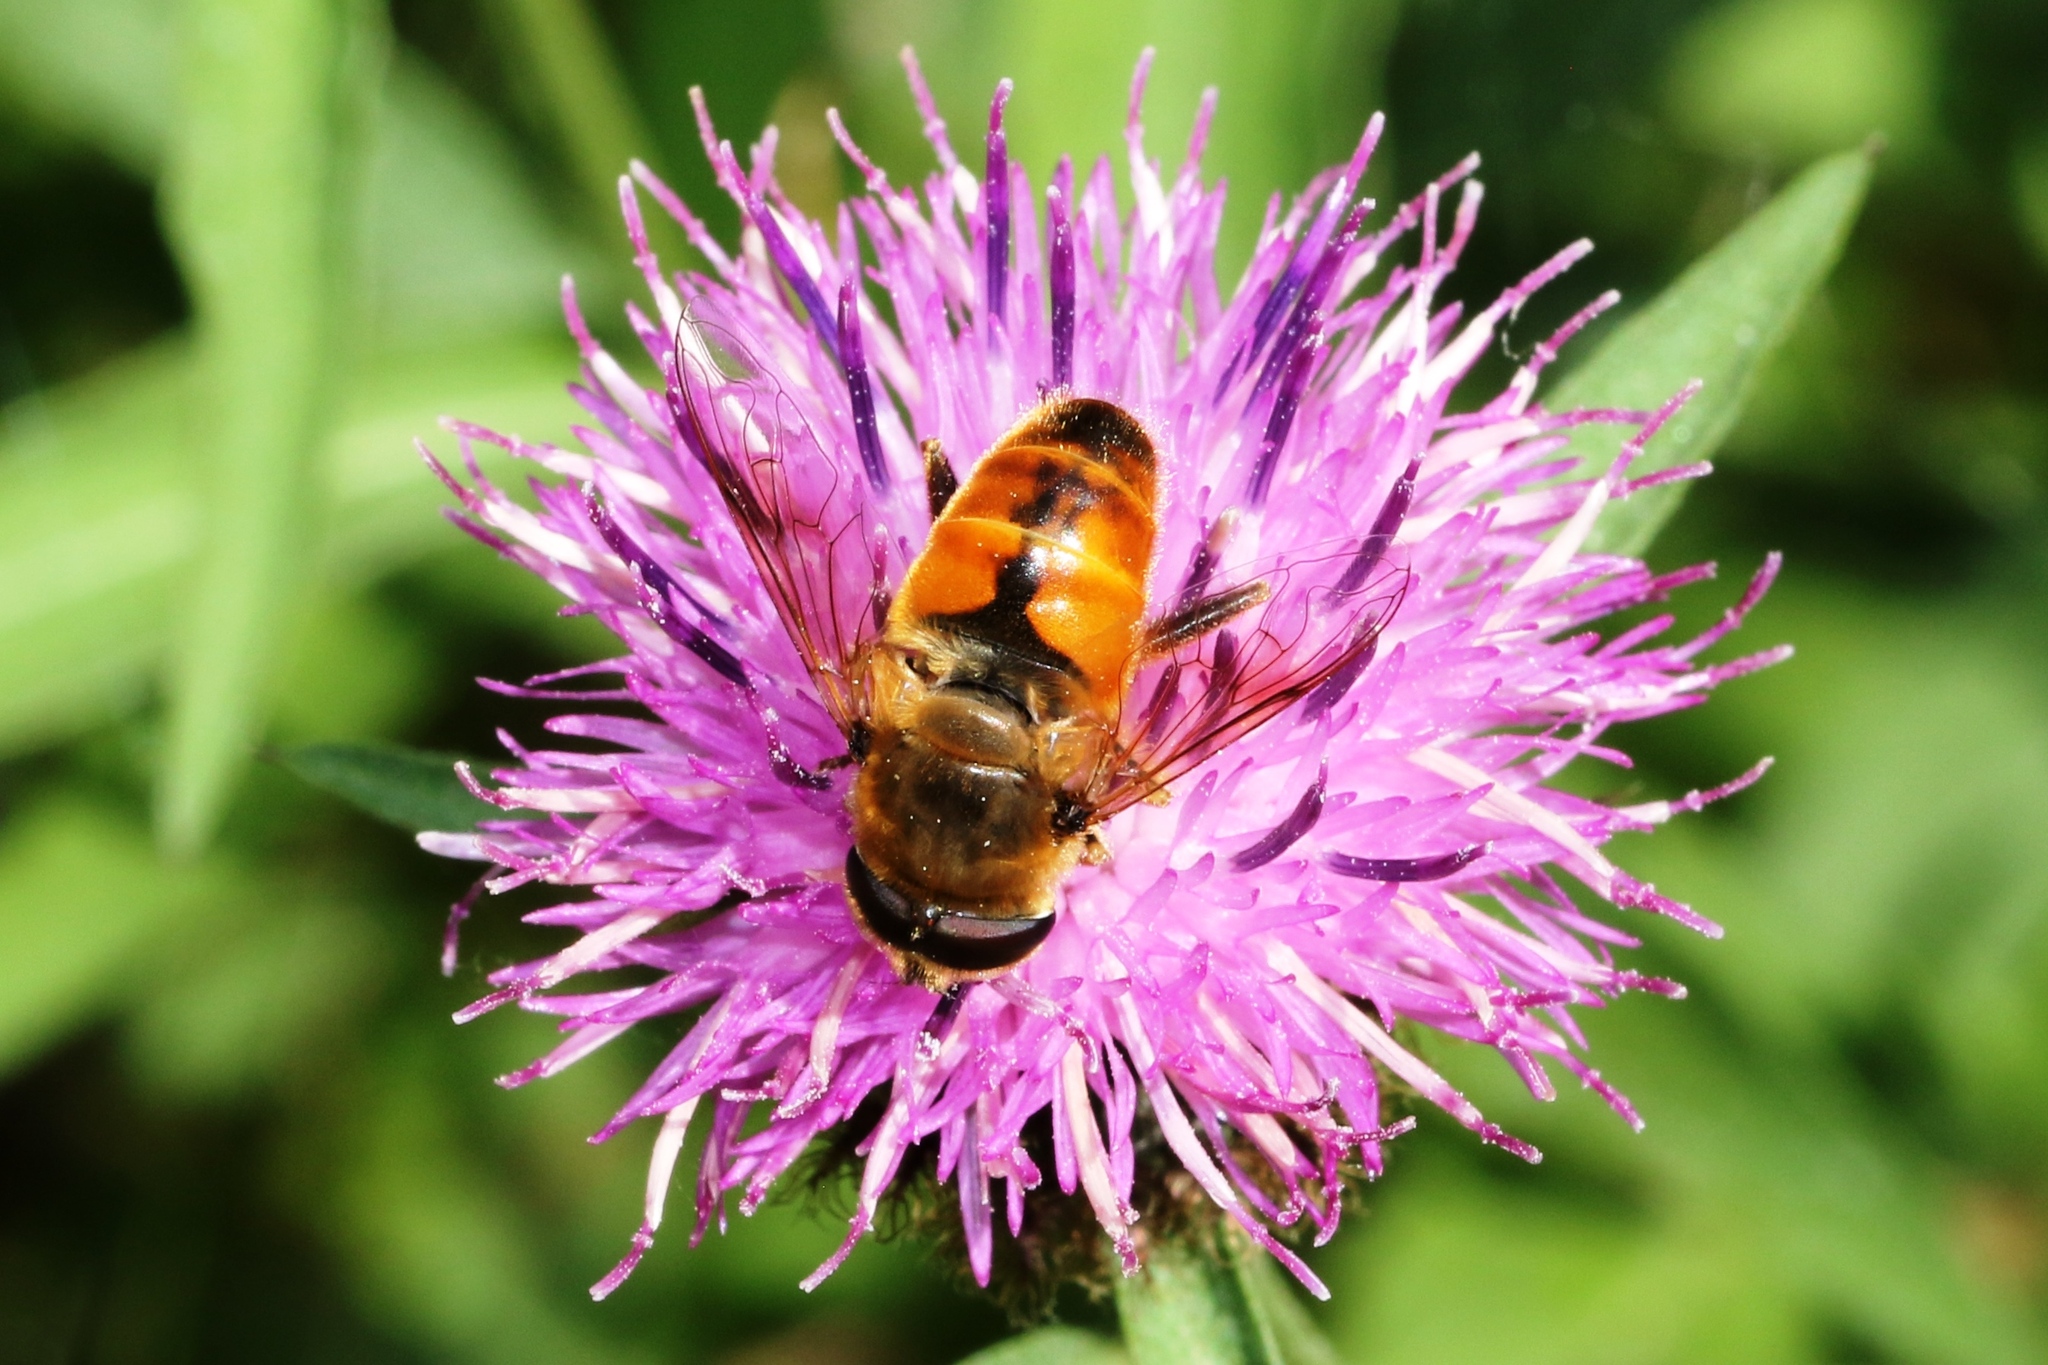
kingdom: Animalia
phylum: Arthropoda
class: Insecta
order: Diptera
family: Syrphidae
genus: Eristalis
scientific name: Eristalis tenax
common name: Drone fly
